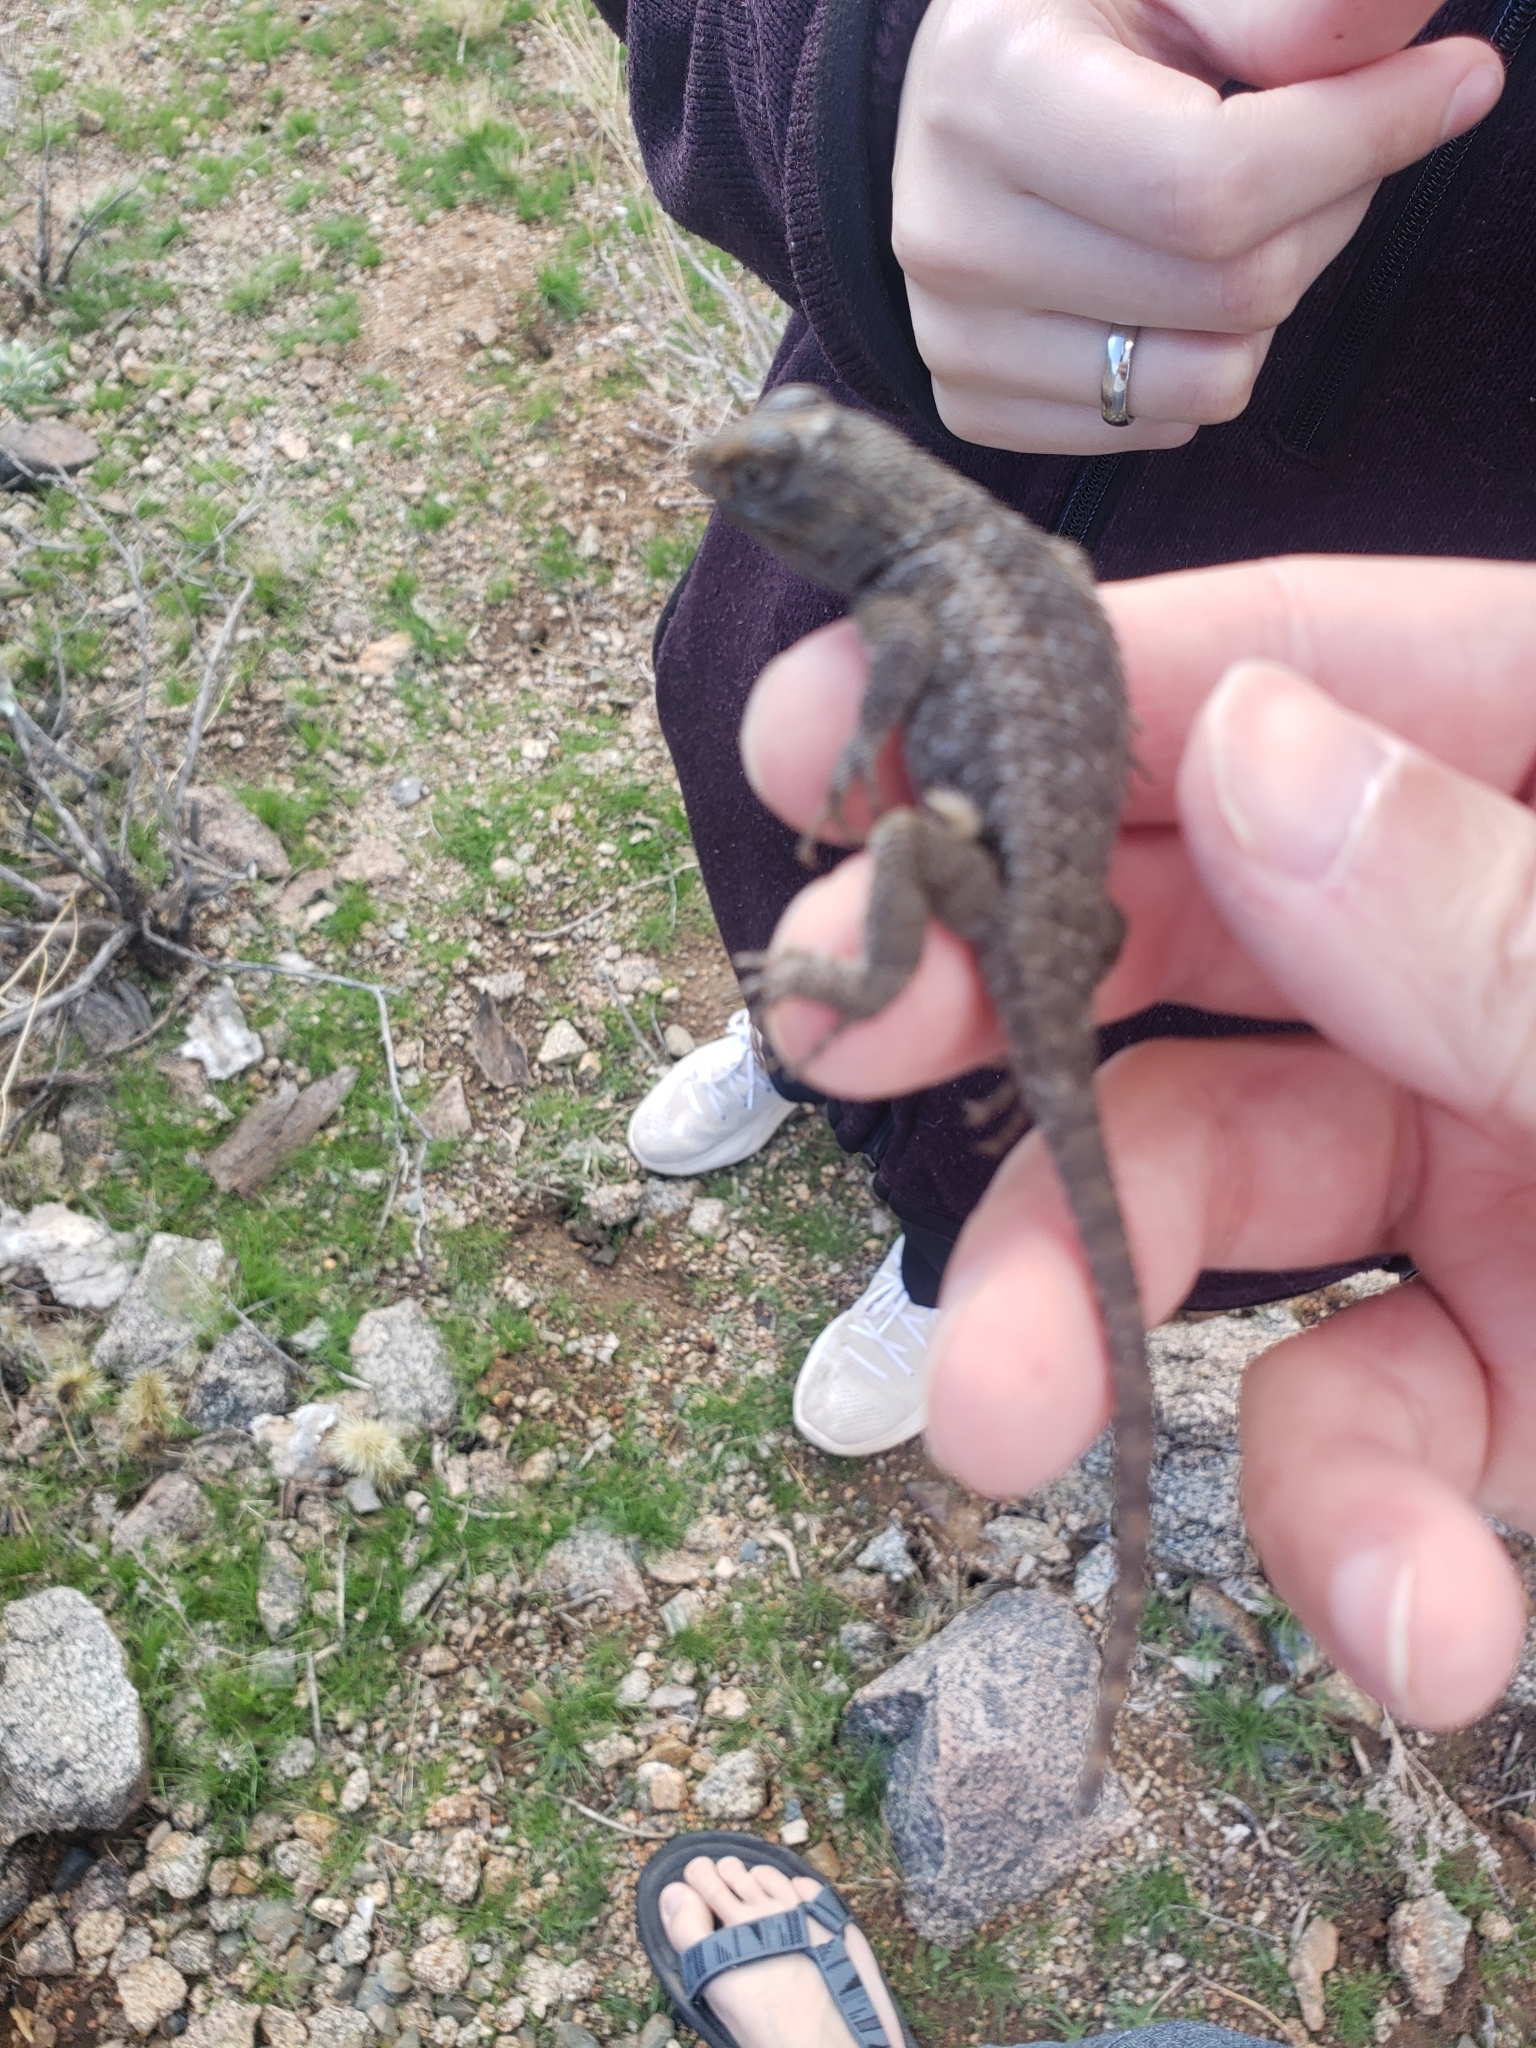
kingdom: Animalia
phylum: Chordata
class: Squamata
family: Phrynosomatidae
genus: Sceloporus
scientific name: Sceloporus magister
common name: Desert spiny lizard
